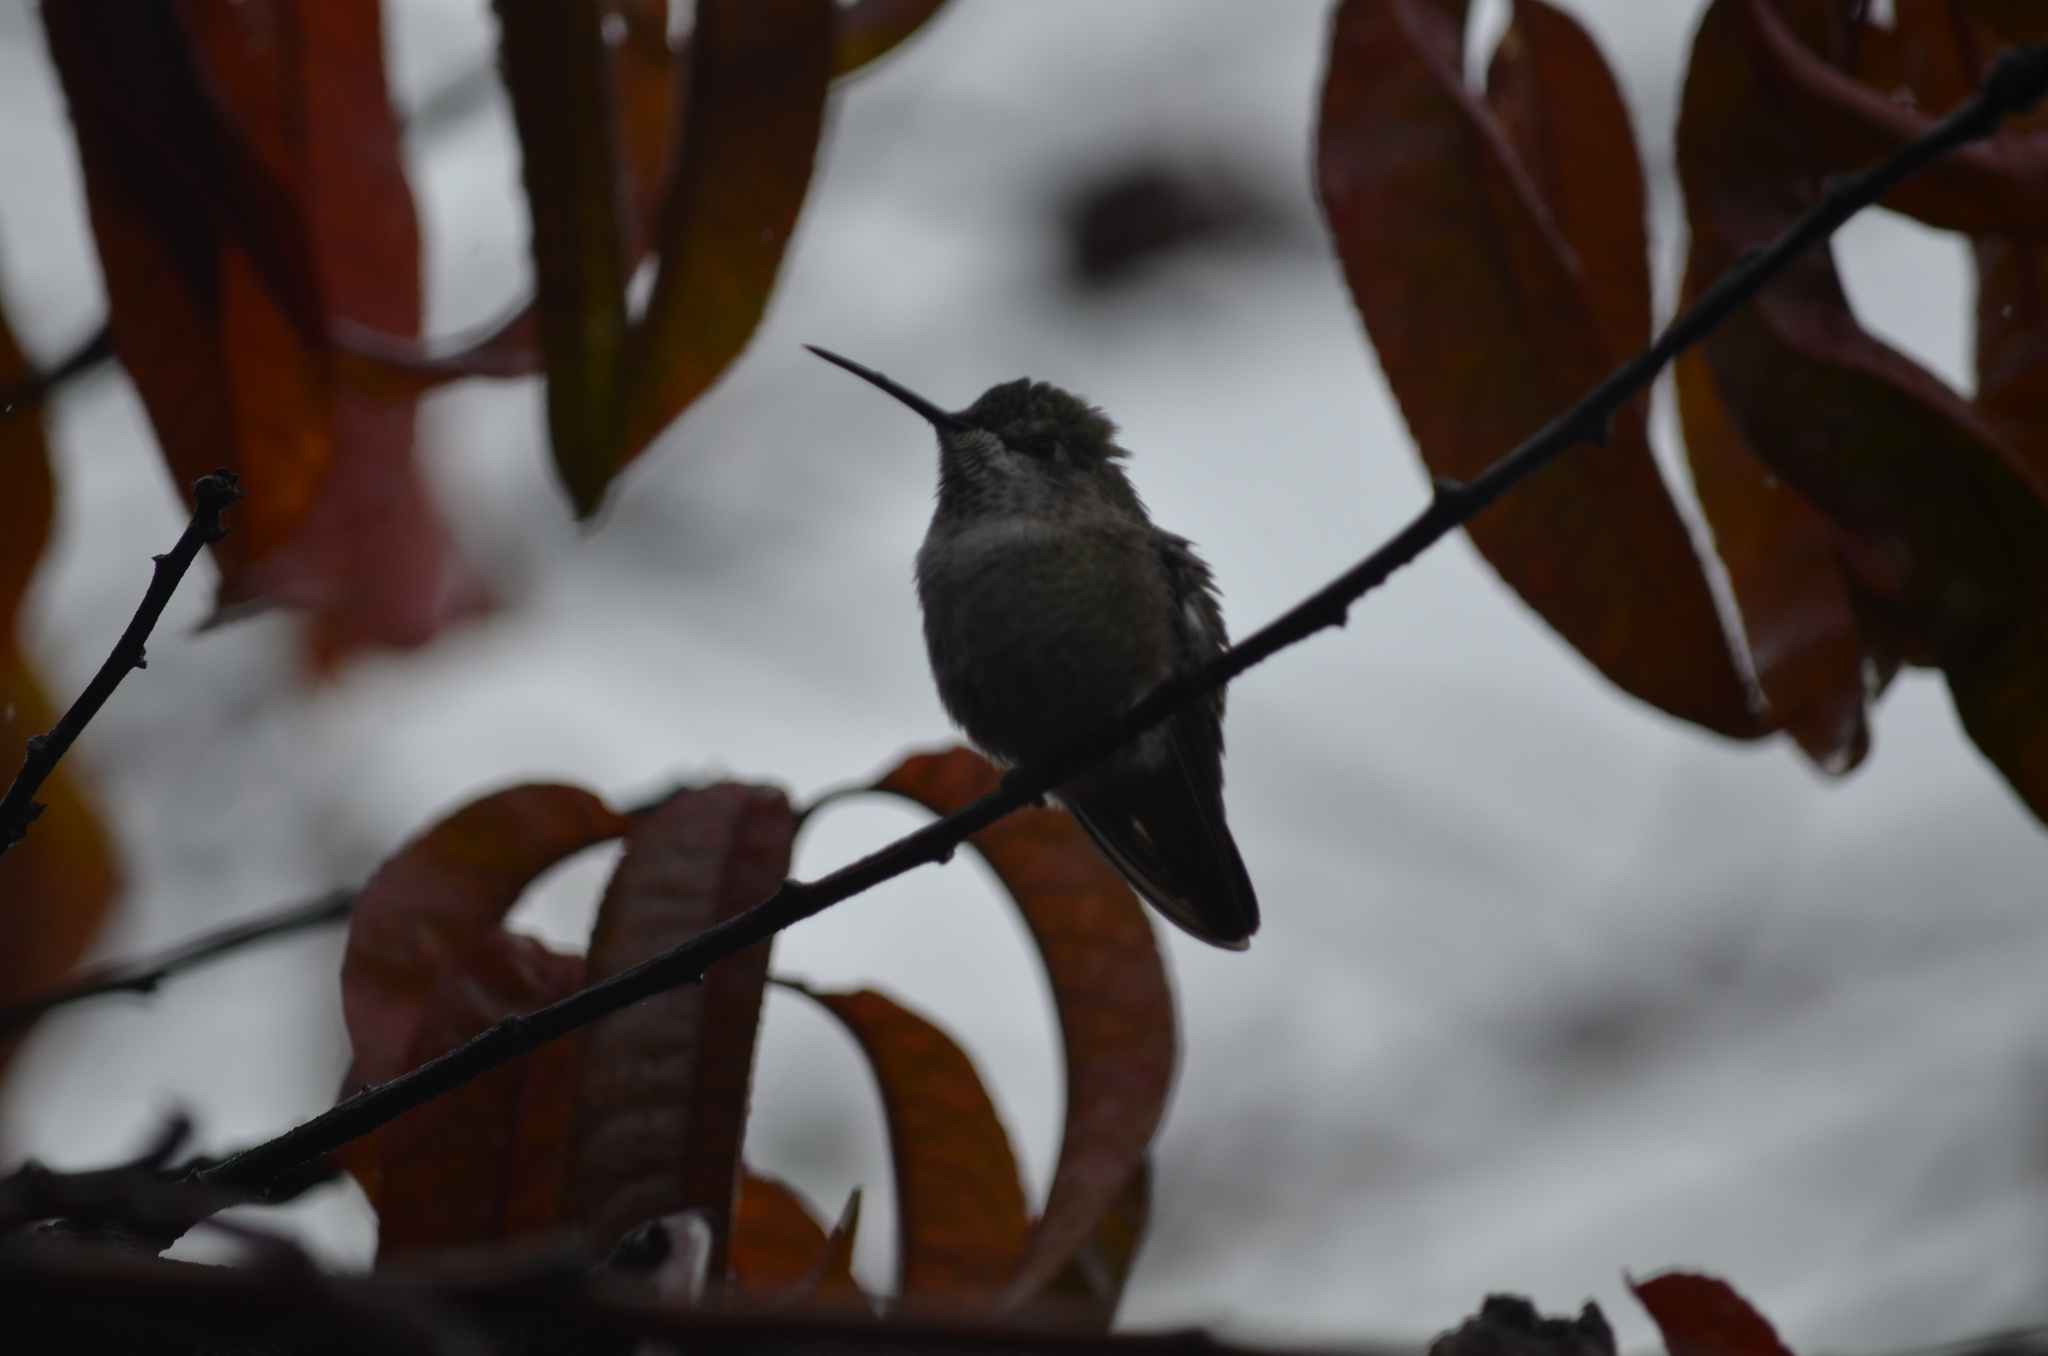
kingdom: Animalia
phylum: Chordata
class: Aves
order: Apodiformes
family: Trochilidae
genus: Calypte
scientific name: Calypte anna
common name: Anna's hummingbird
